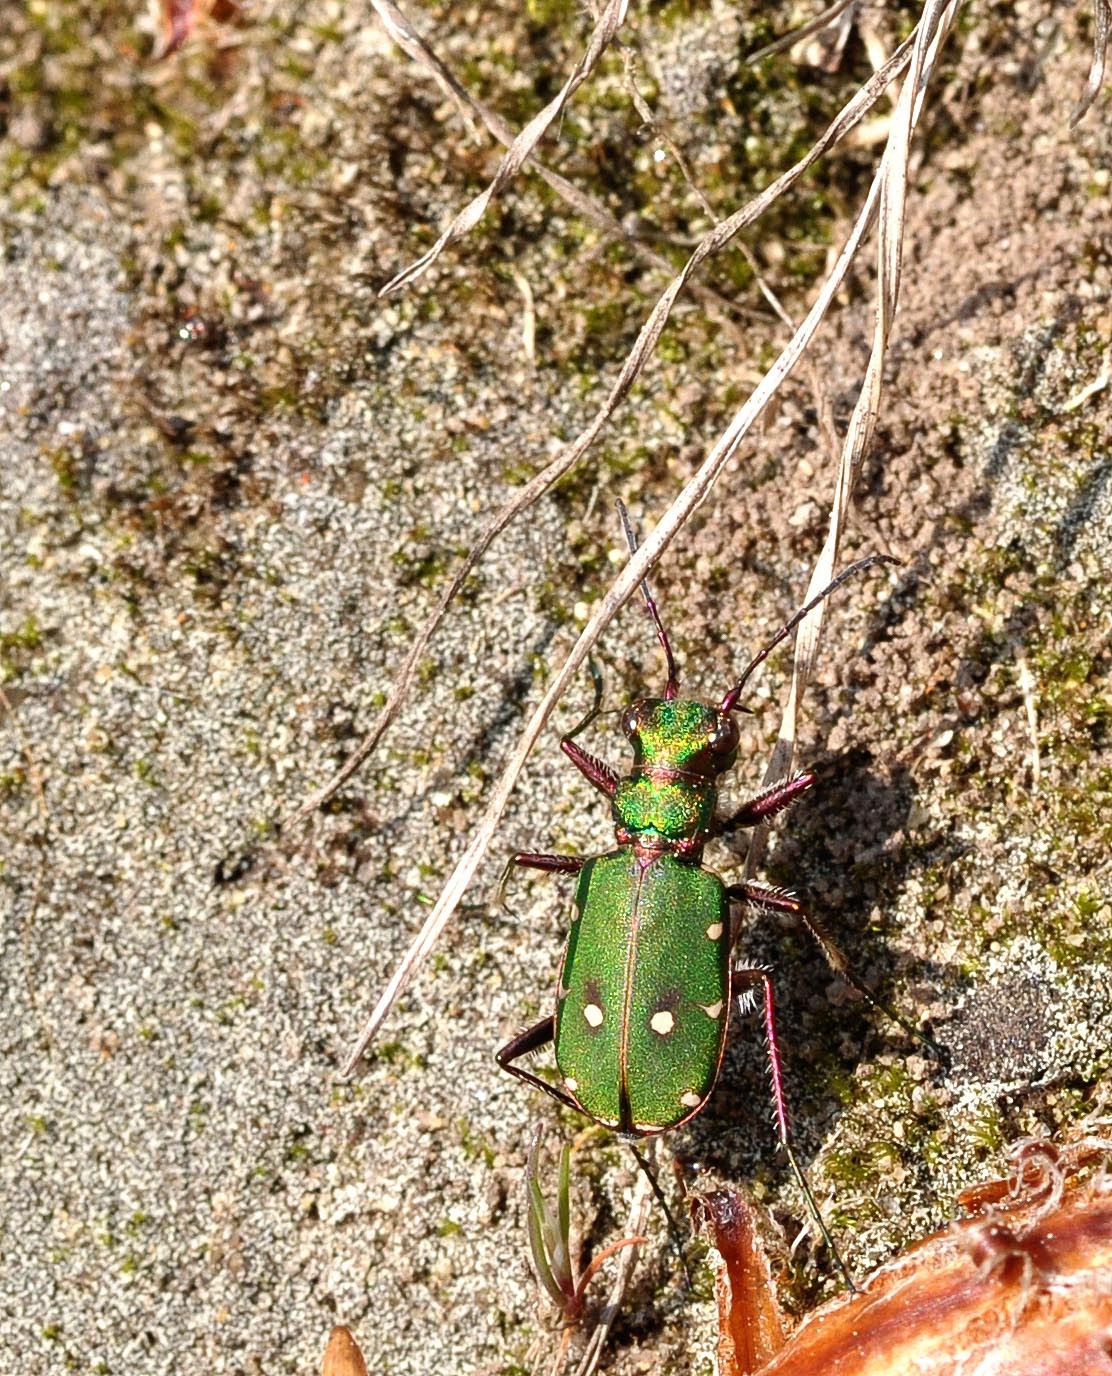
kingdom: Animalia
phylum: Arthropoda
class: Insecta
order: Coleoptera
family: Carabidae
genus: Cicindela
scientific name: Cicindela campestris
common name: Common tiger beetle
